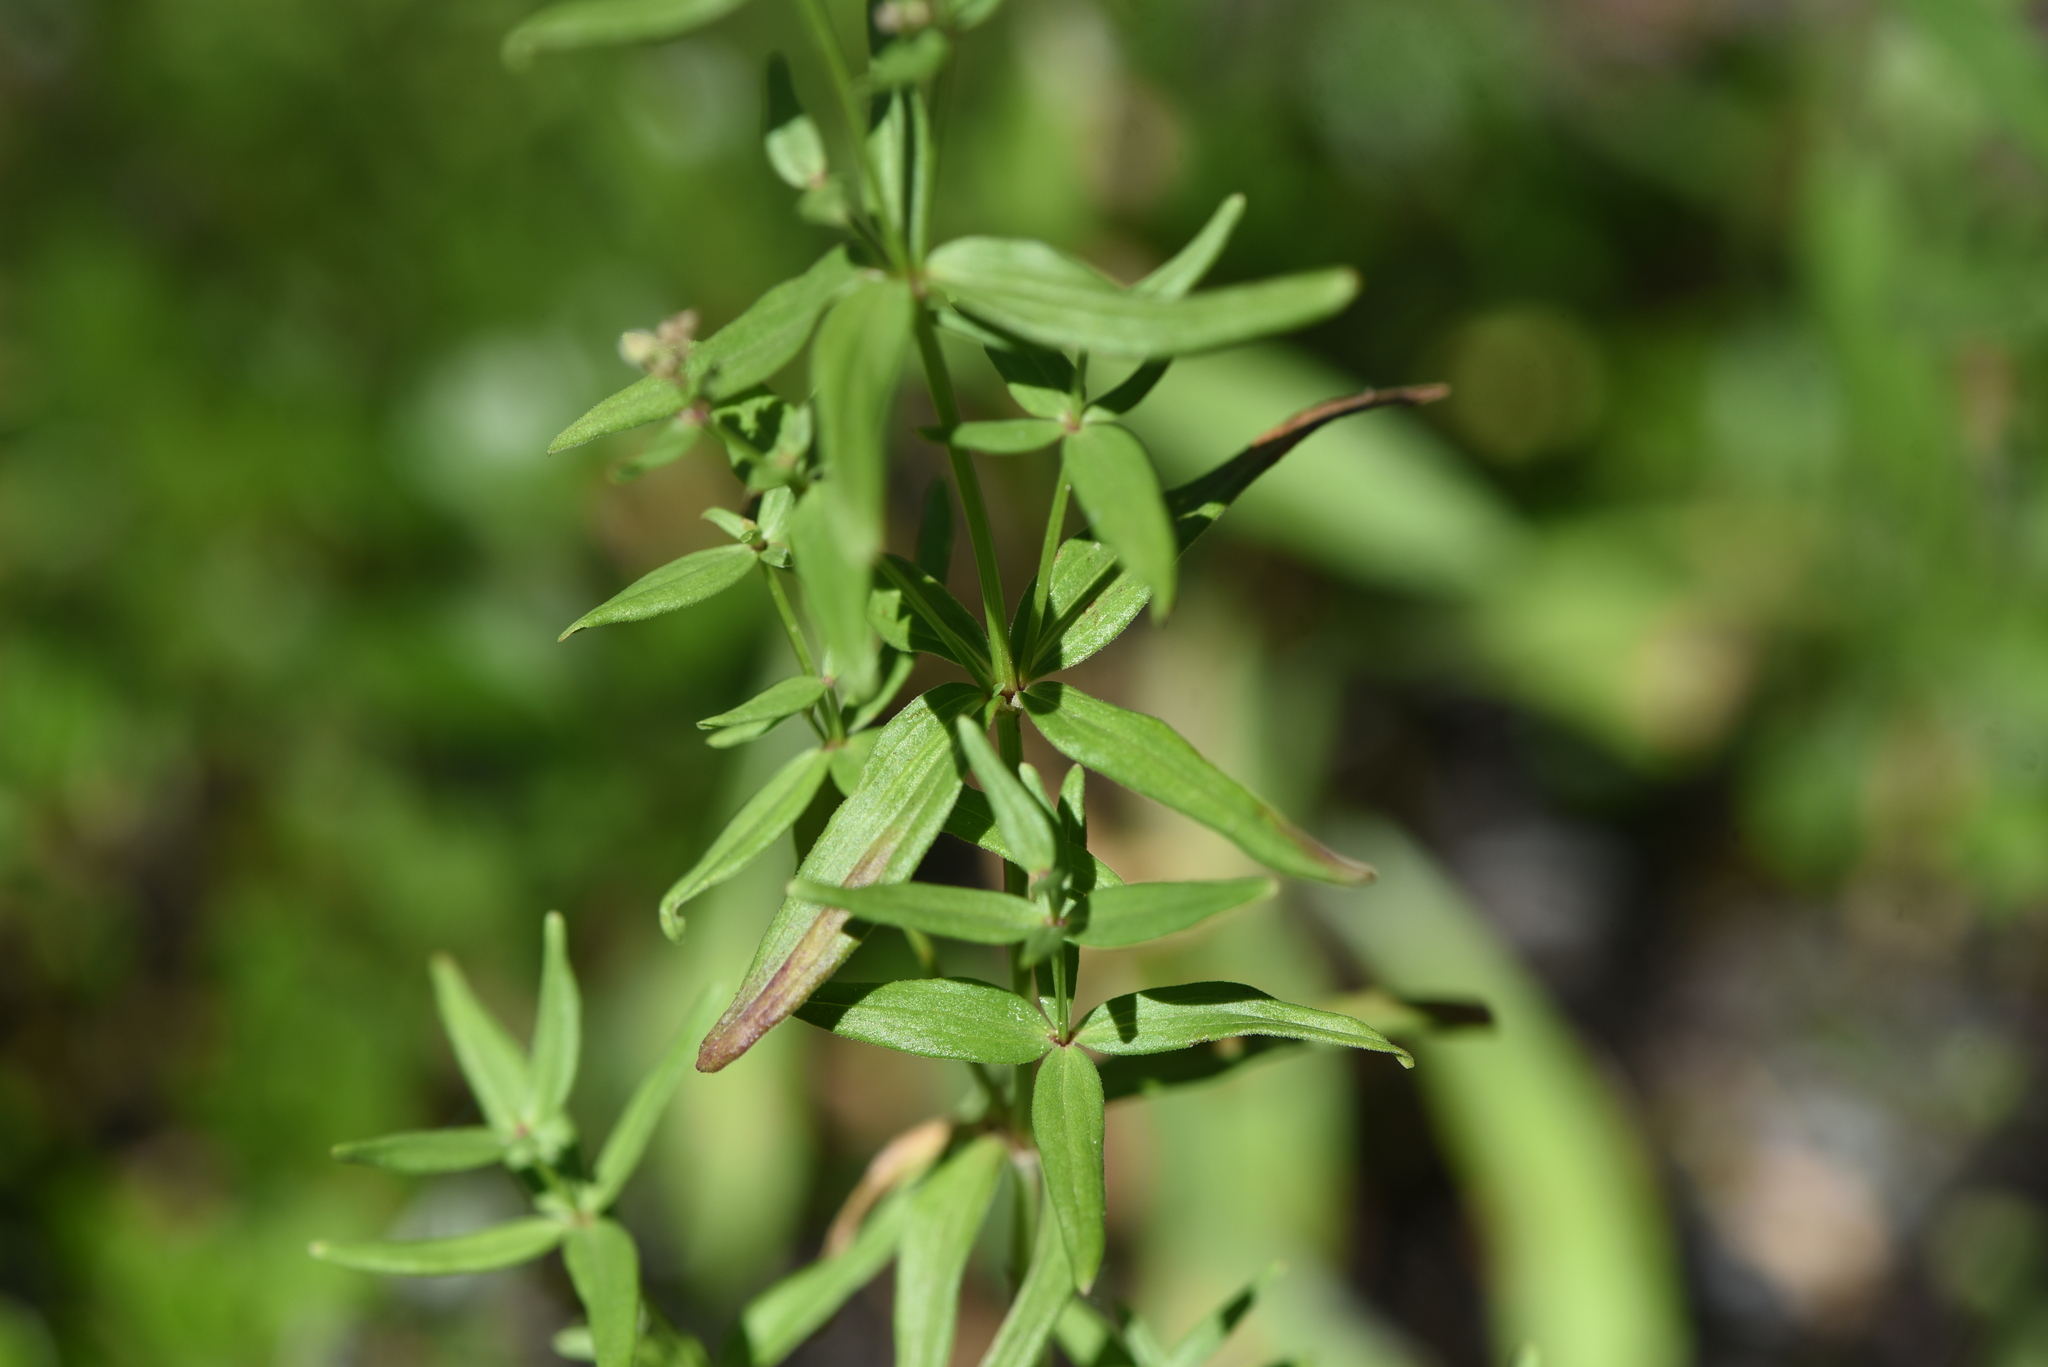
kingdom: Plantae
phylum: Tracheophyta
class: Magnoliopsida
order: Gentianales
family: Rubiaceae
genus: Galium
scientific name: Galium boreale
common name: Northern bedstraw
